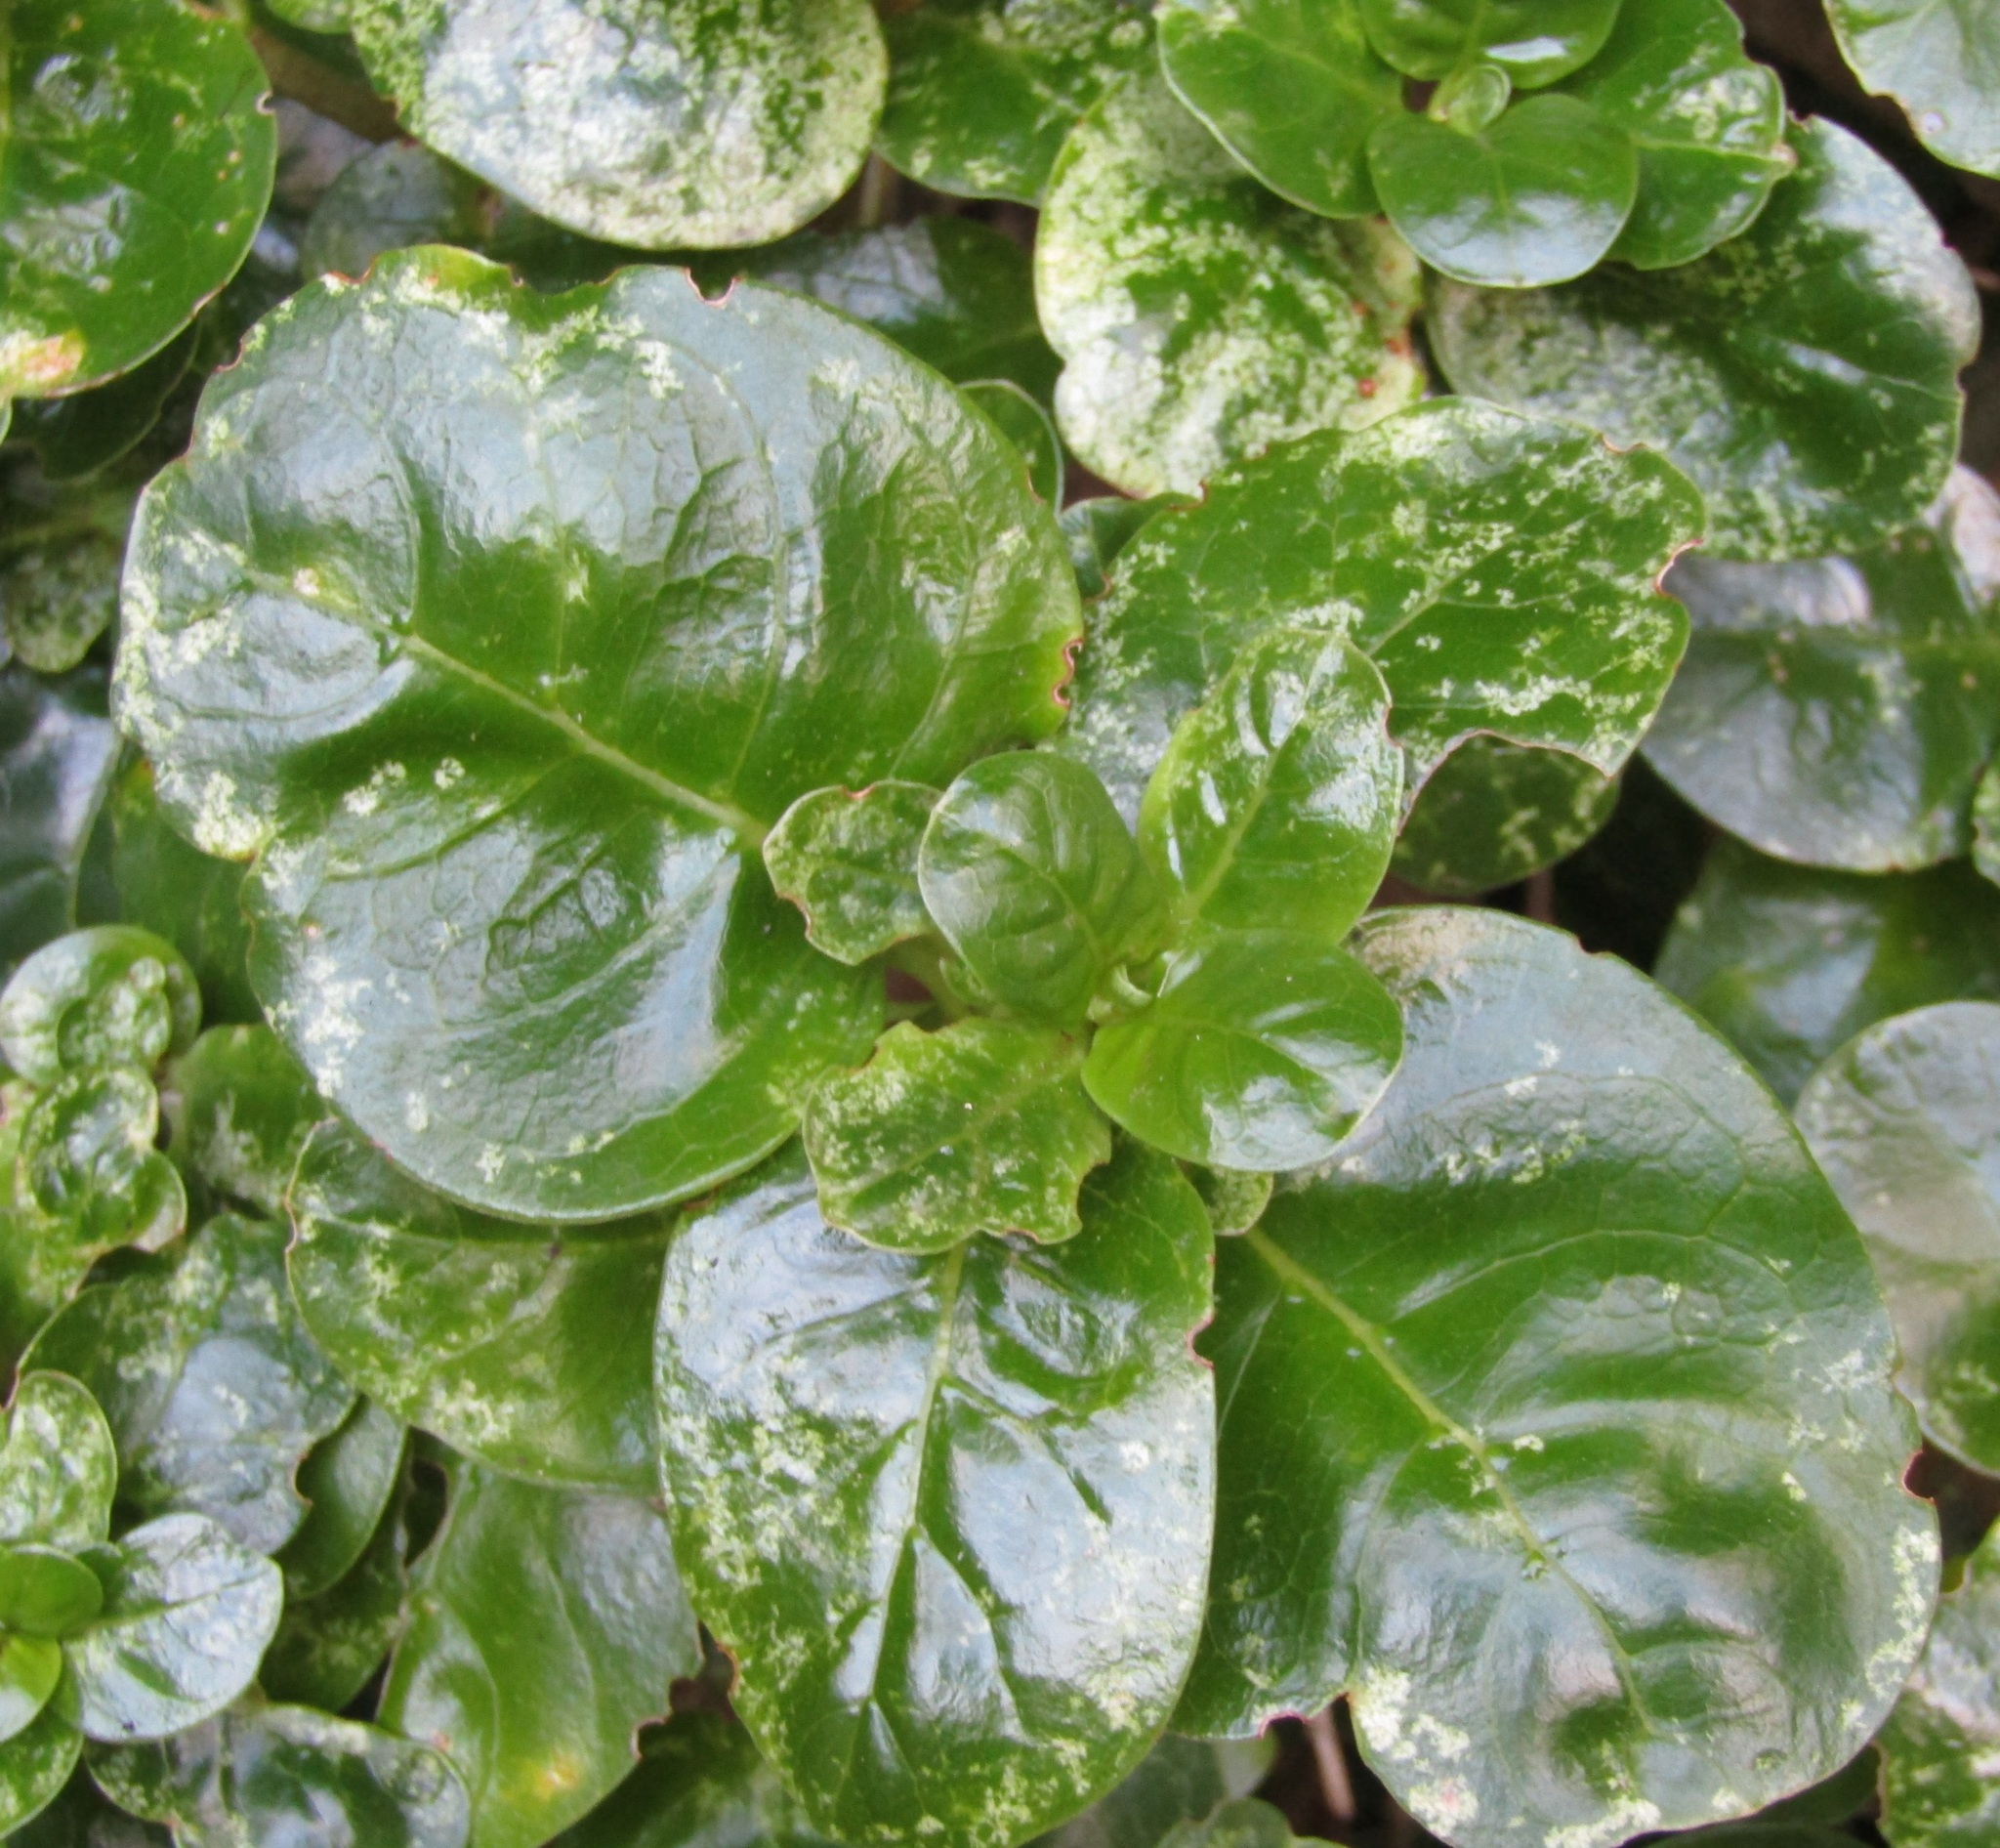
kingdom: Plantae
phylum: Tracheophyta
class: Magnoliopsida
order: Gentianales
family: Rubiaceae
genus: Coprosma
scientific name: Coprosma repens
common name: Tree bedstraw
